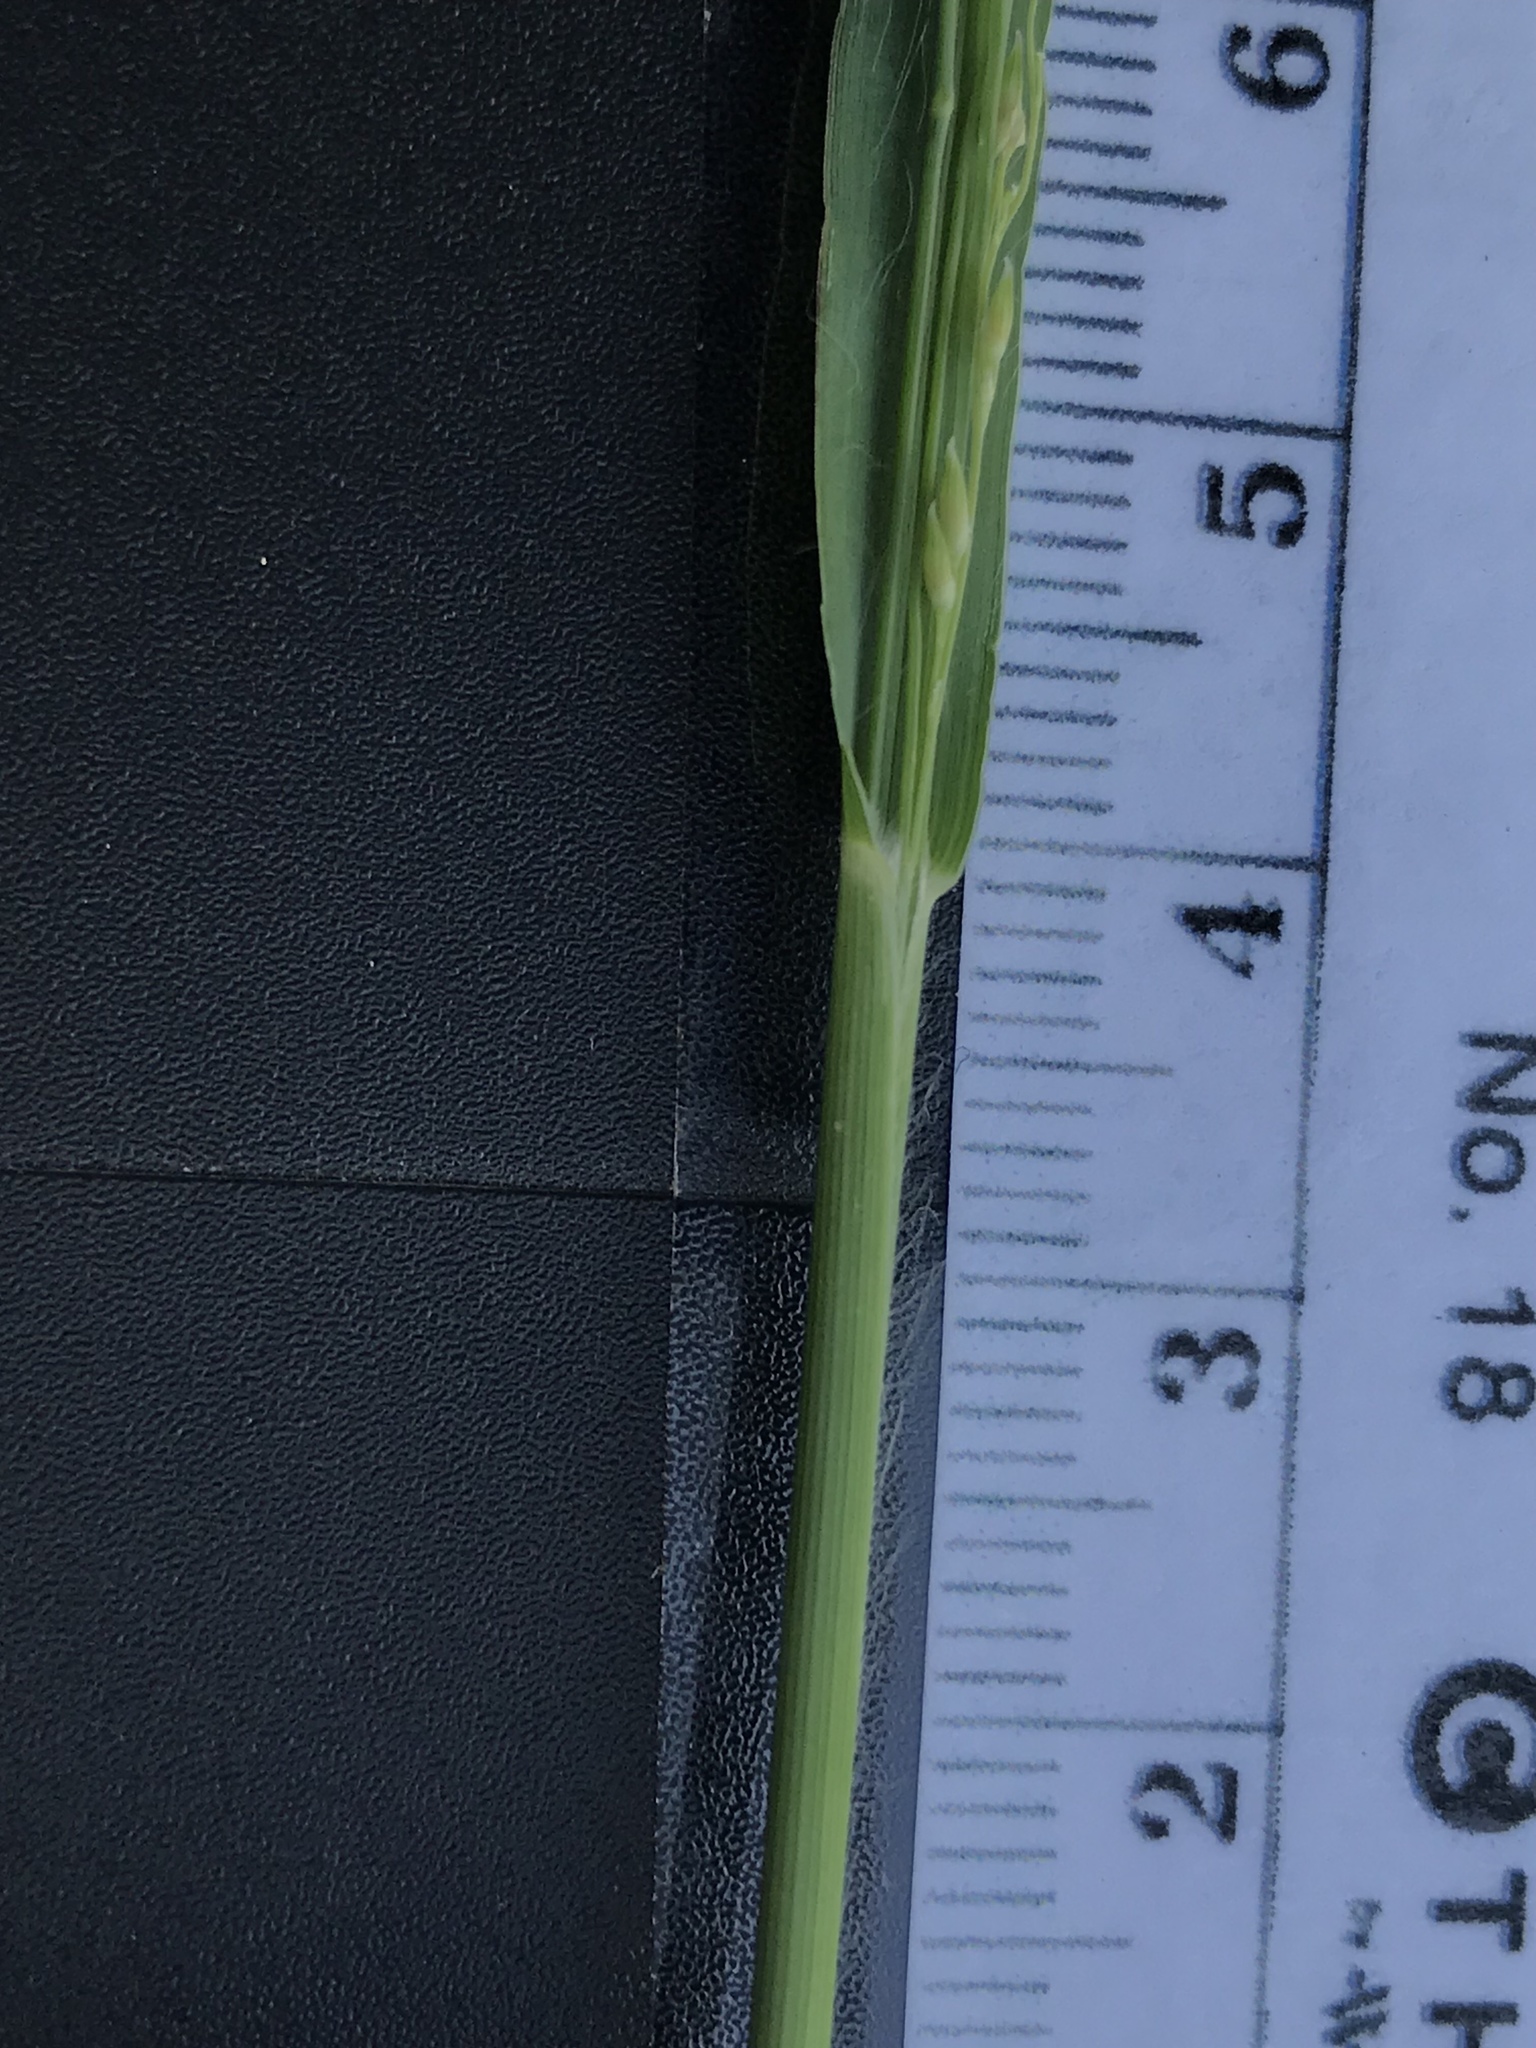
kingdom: Plantae
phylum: Tracheophyta
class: Liliopsida
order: Poales
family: Poaceae
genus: Panicum
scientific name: Panicum coloratum
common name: Kleingrass
